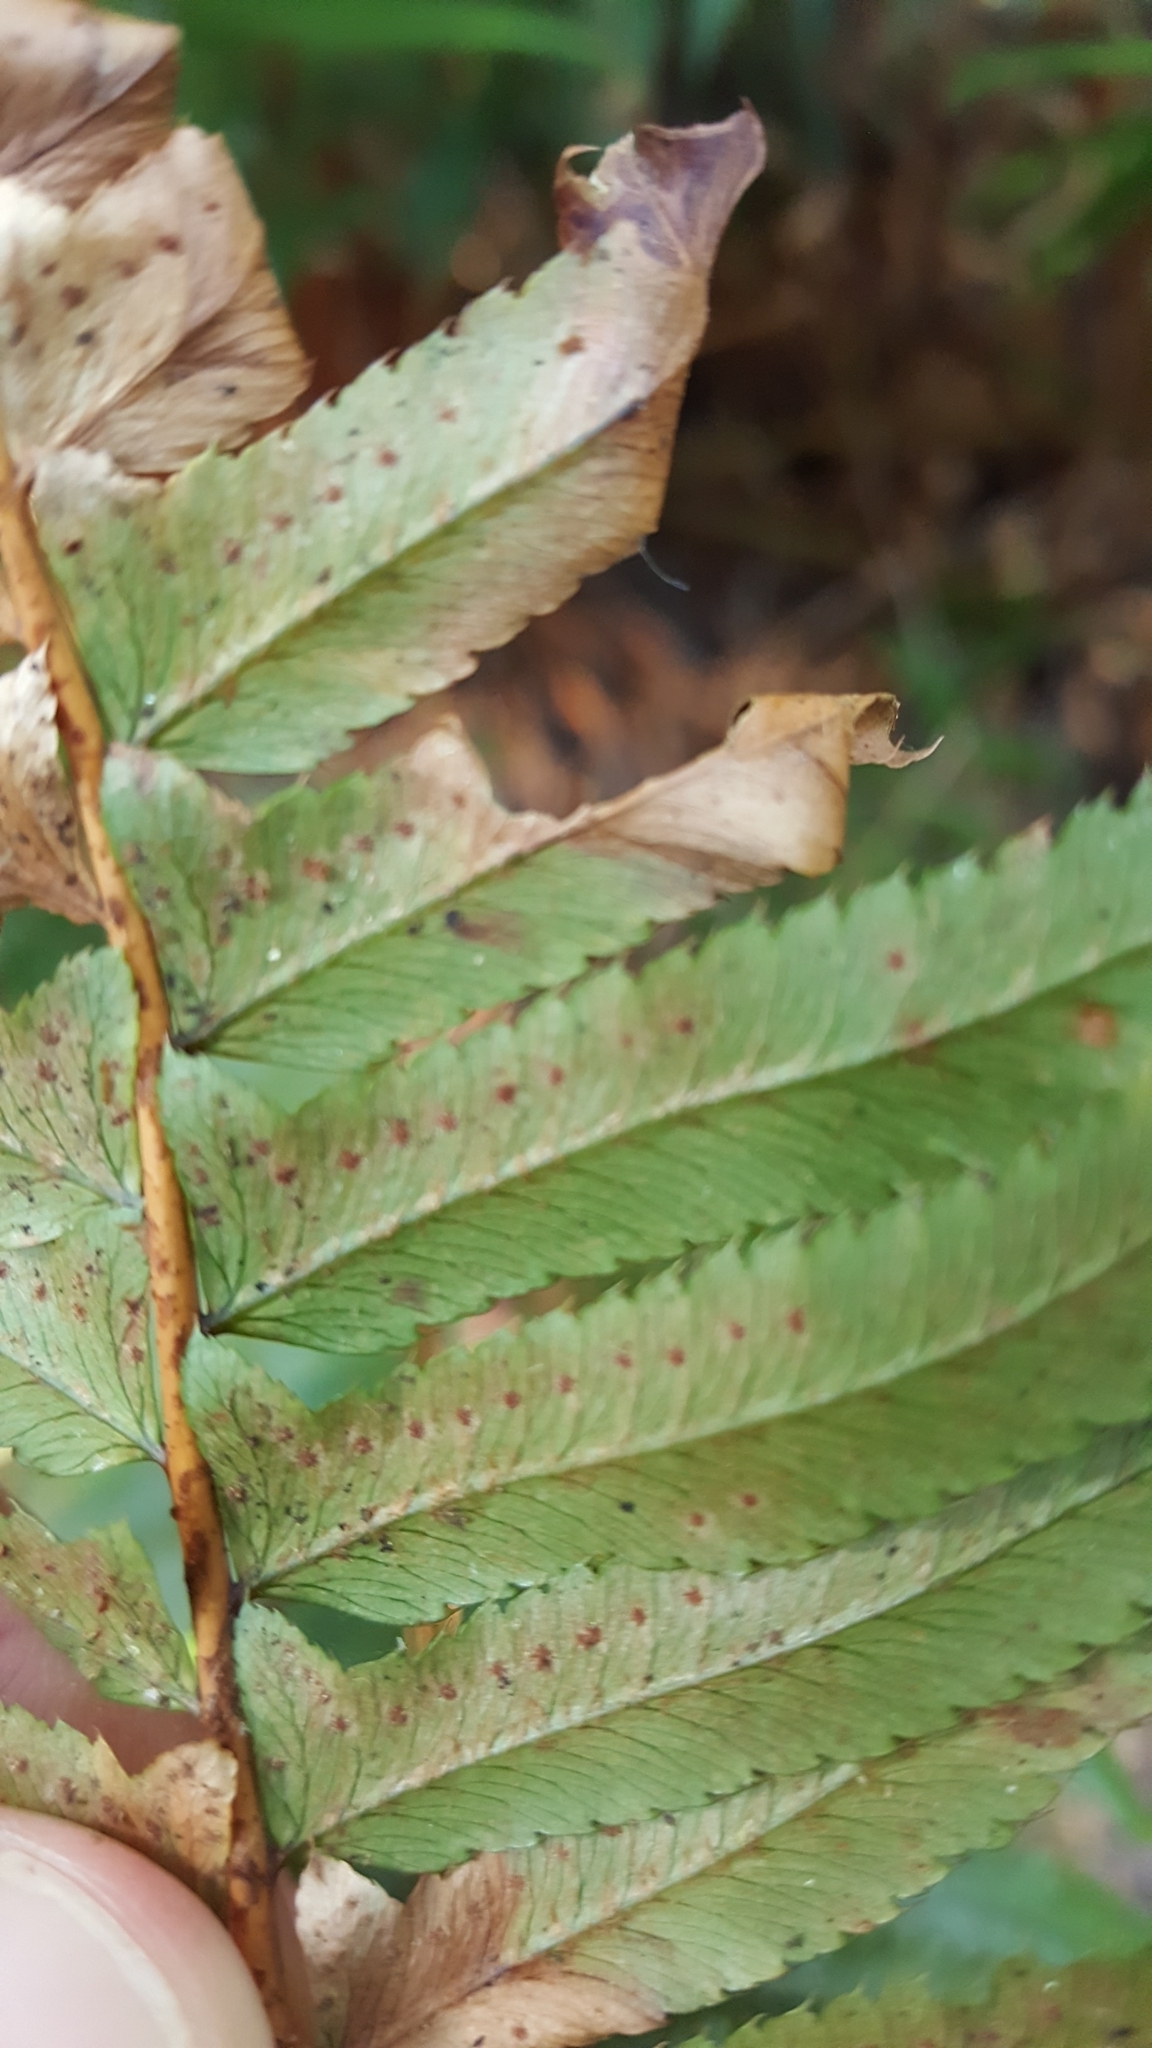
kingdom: Plantae
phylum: Tracheophyta
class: Polypodiopsida
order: Polypodiales
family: Dryopteridaceae
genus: Polystichum
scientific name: Polystichum munitum
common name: Western sword-fern
